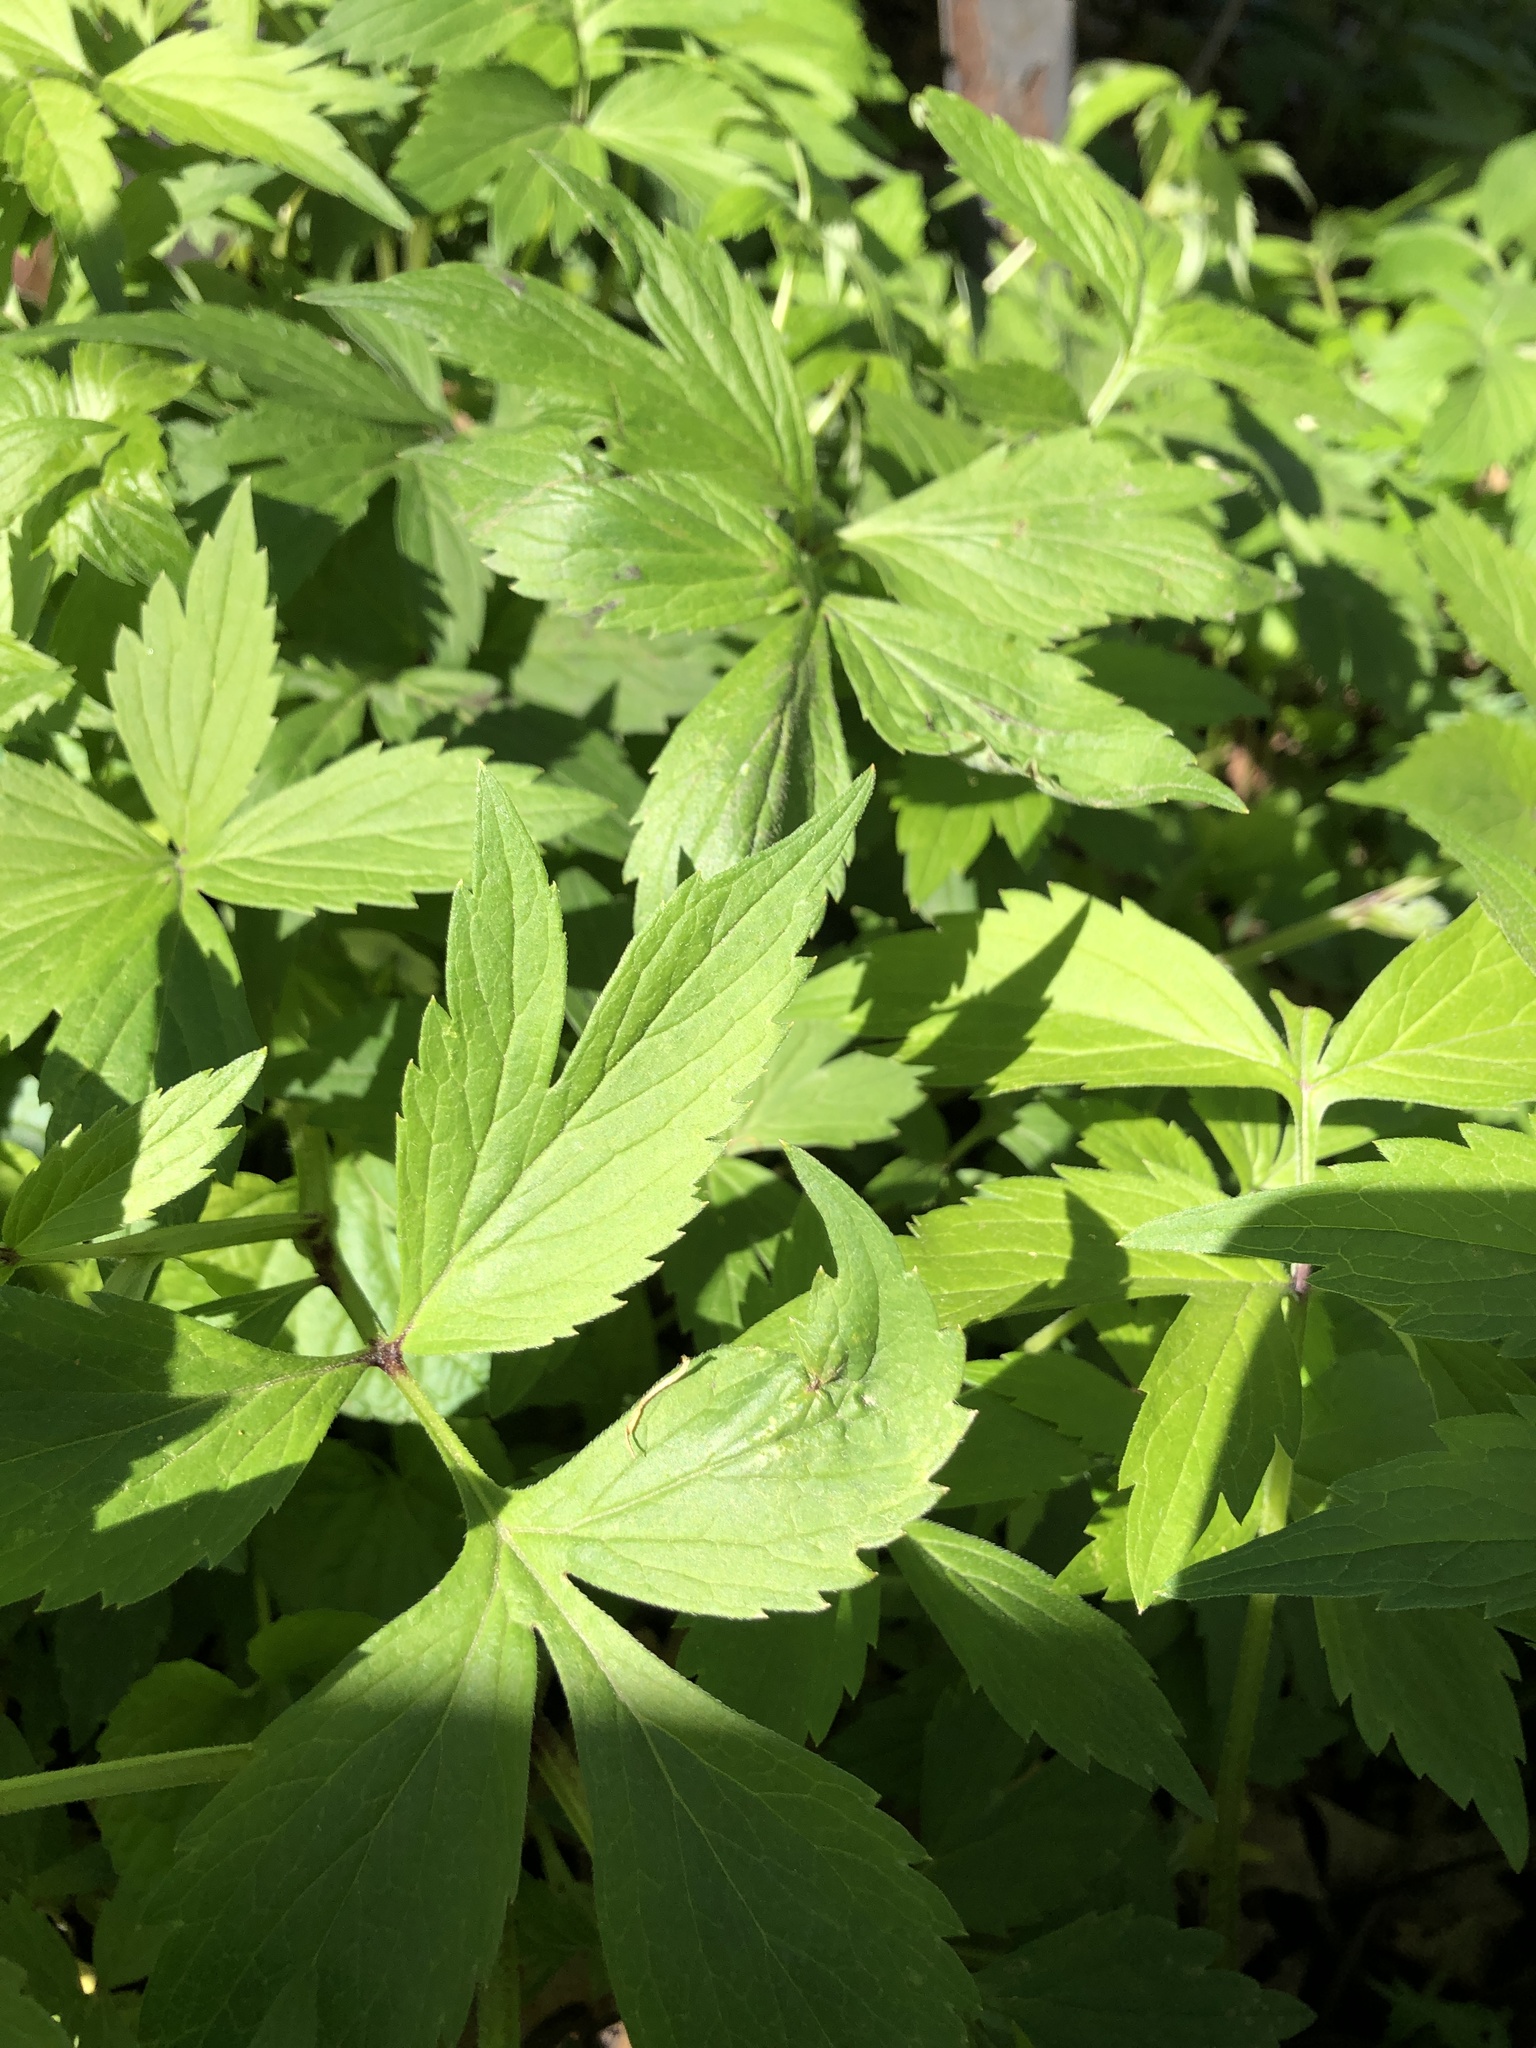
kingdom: Plantae
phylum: Tracheophyta
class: Magnoliopsida
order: Boraginales
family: Hydrophyllaceae
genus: Hydrophyllum
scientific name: Hydrophyllum virginianum
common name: Virginia waterleaf
